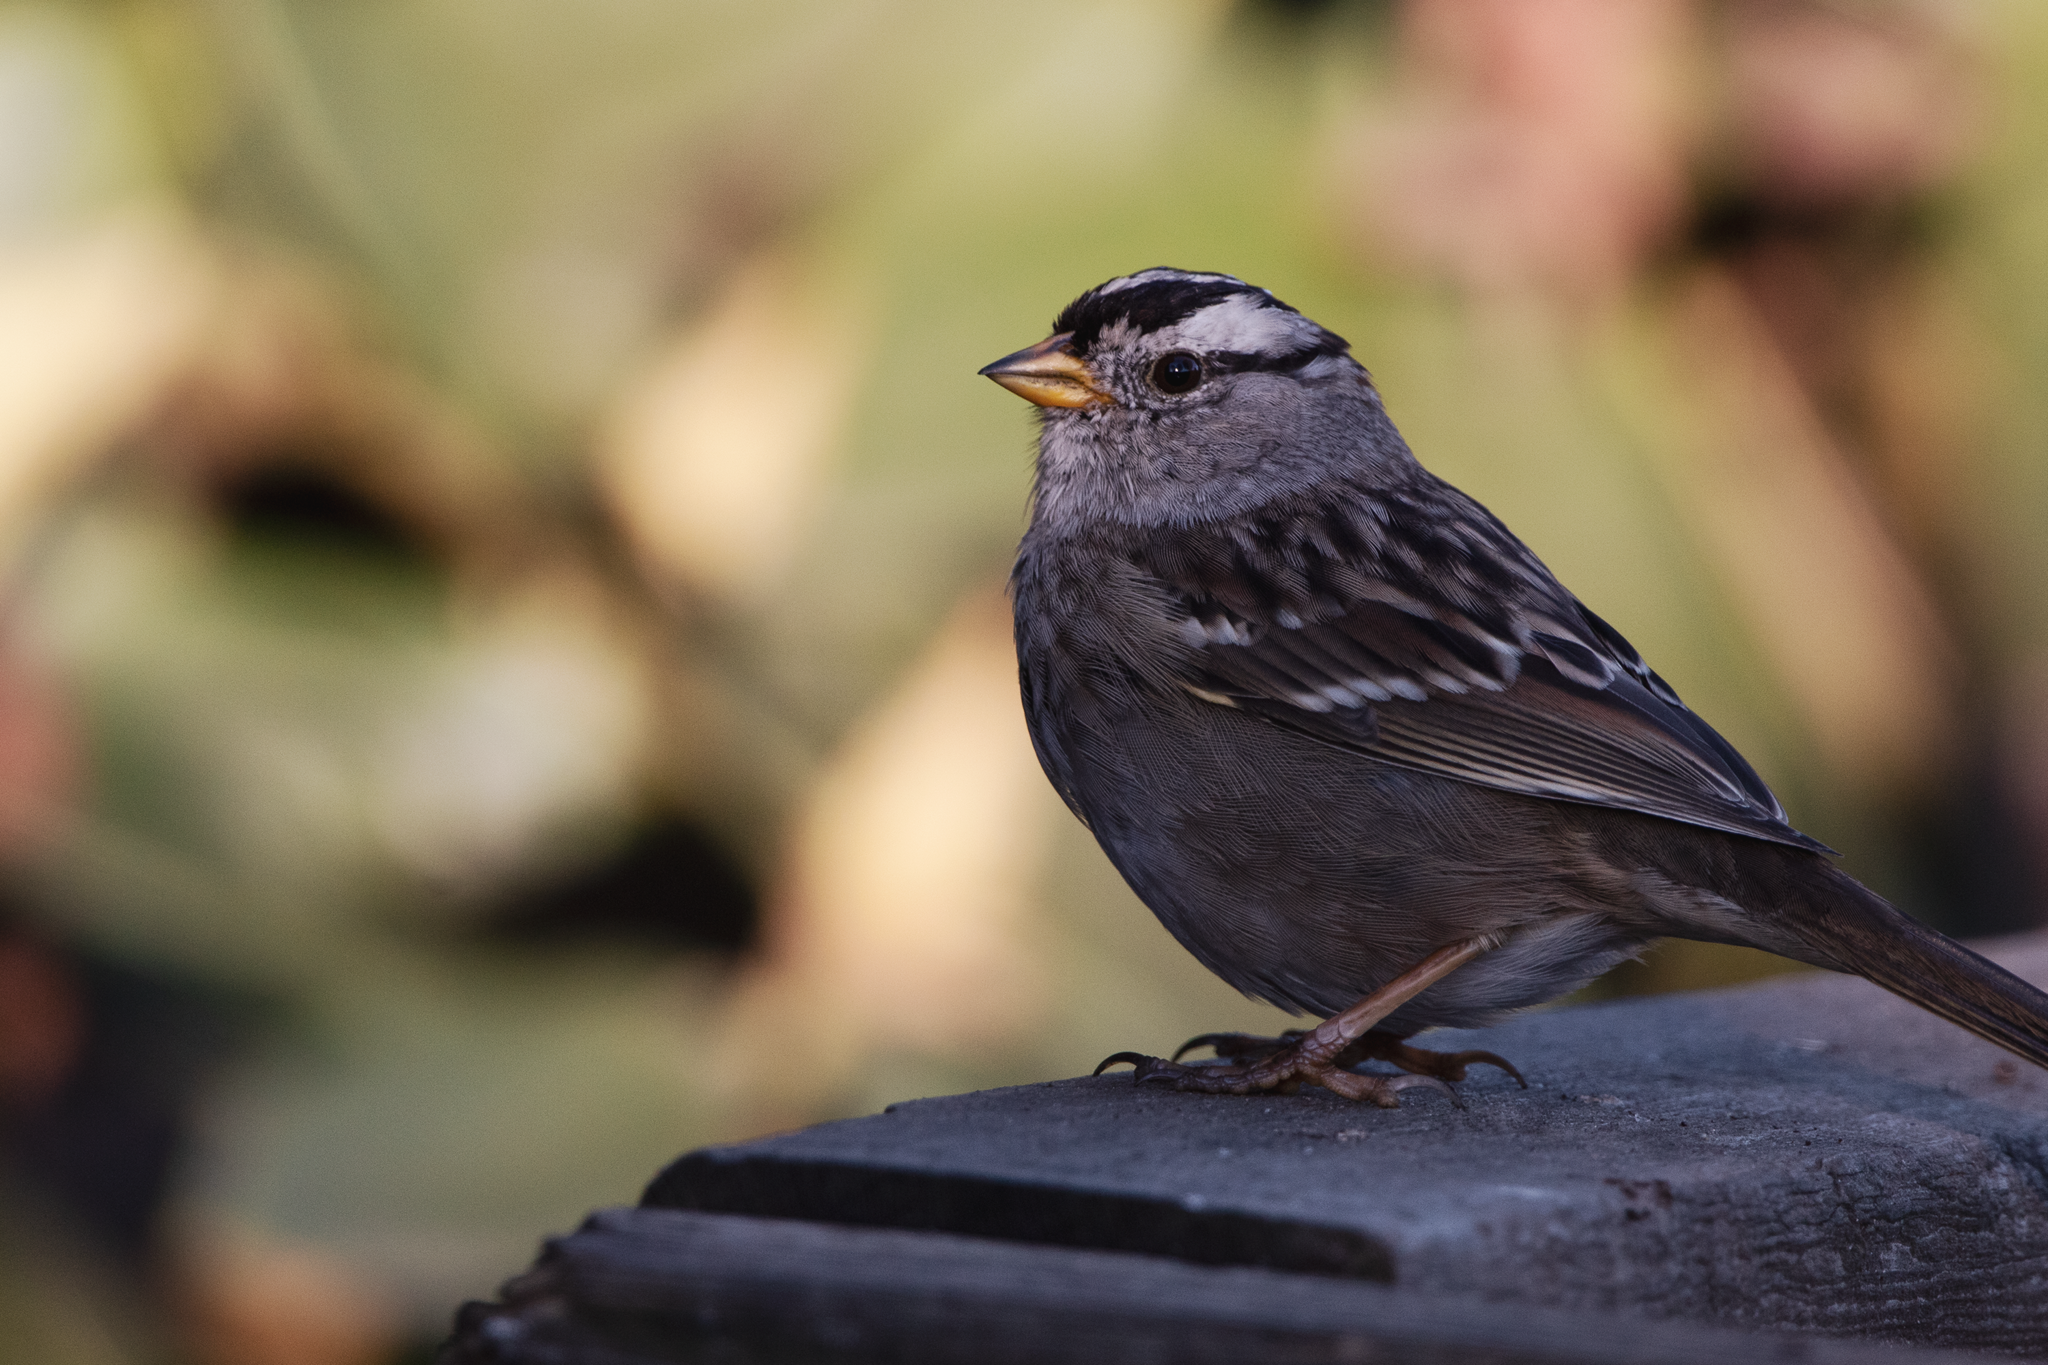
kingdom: Animalia
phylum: Chordata
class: Aves
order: Passeriformes
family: Passerellidae
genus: Zonotrichia
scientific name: Zonotrichia leucophrys
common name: White-crowned sparrow
